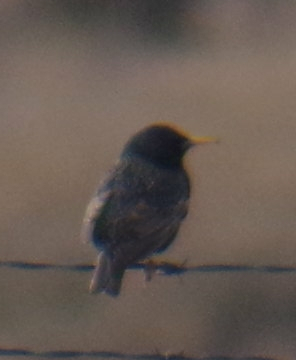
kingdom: Animalia
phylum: Chordata
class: Aves
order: Passeriformes
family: Sturnidae
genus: Sturnus
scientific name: Sturnus vulgaris
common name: Common starling
